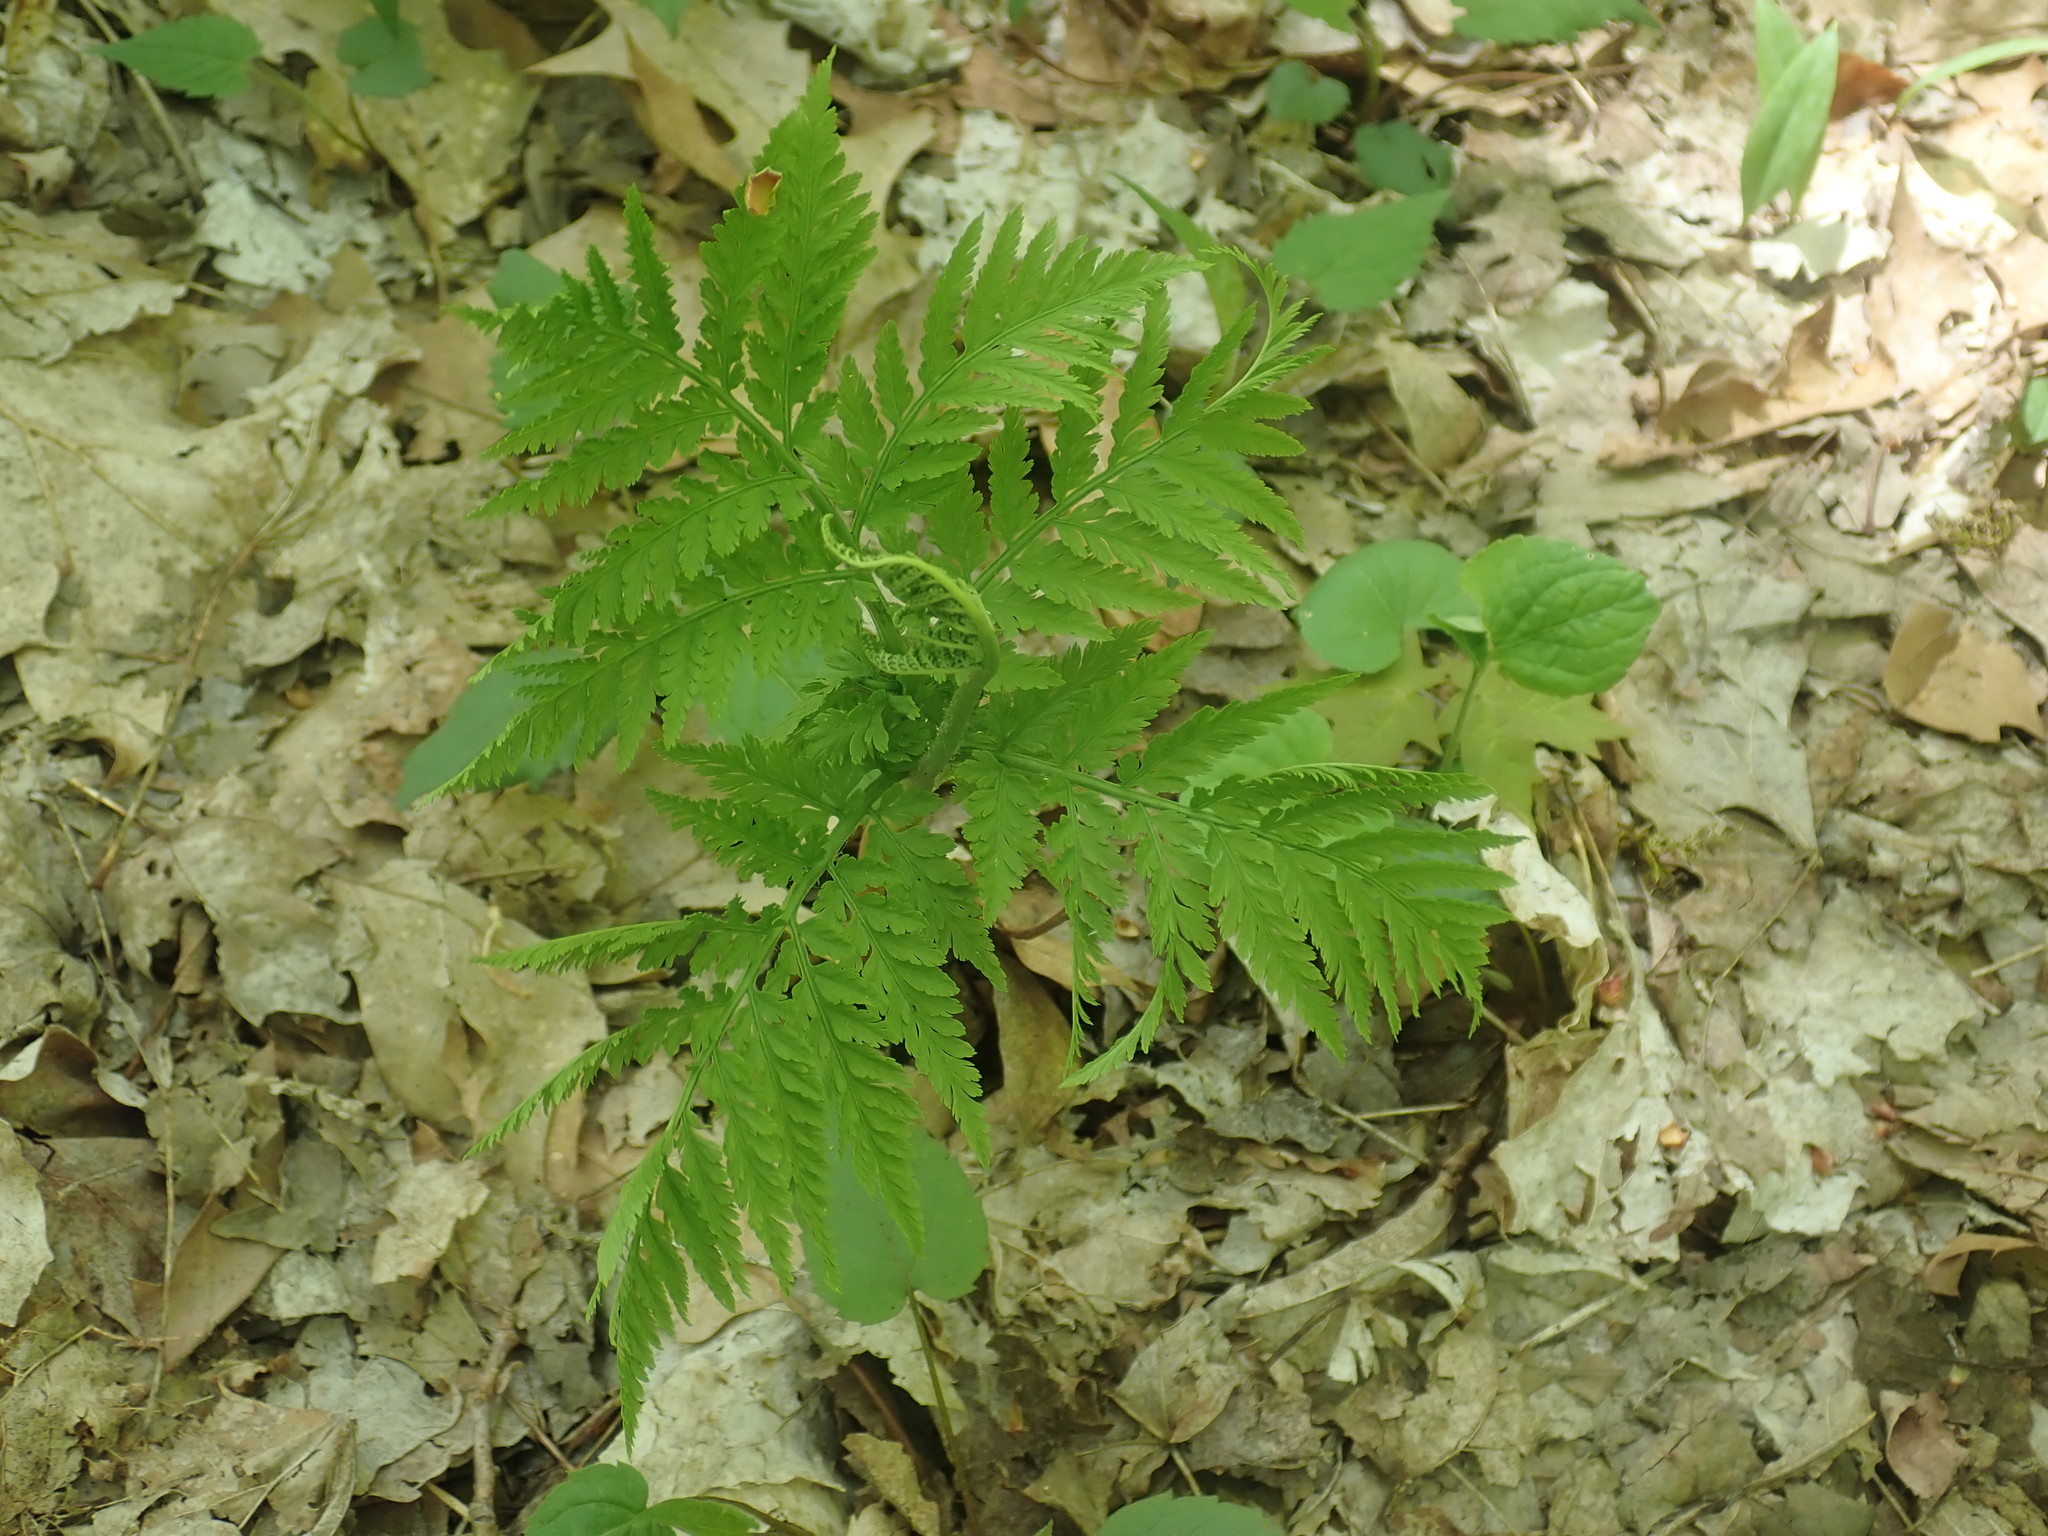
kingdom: Plantae
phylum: Tracheophyta
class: Polypodiopsida
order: Ophioglossales
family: Ophioglossaceae
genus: Botrypus
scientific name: Botrypus virginianus
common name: Common grapefern
